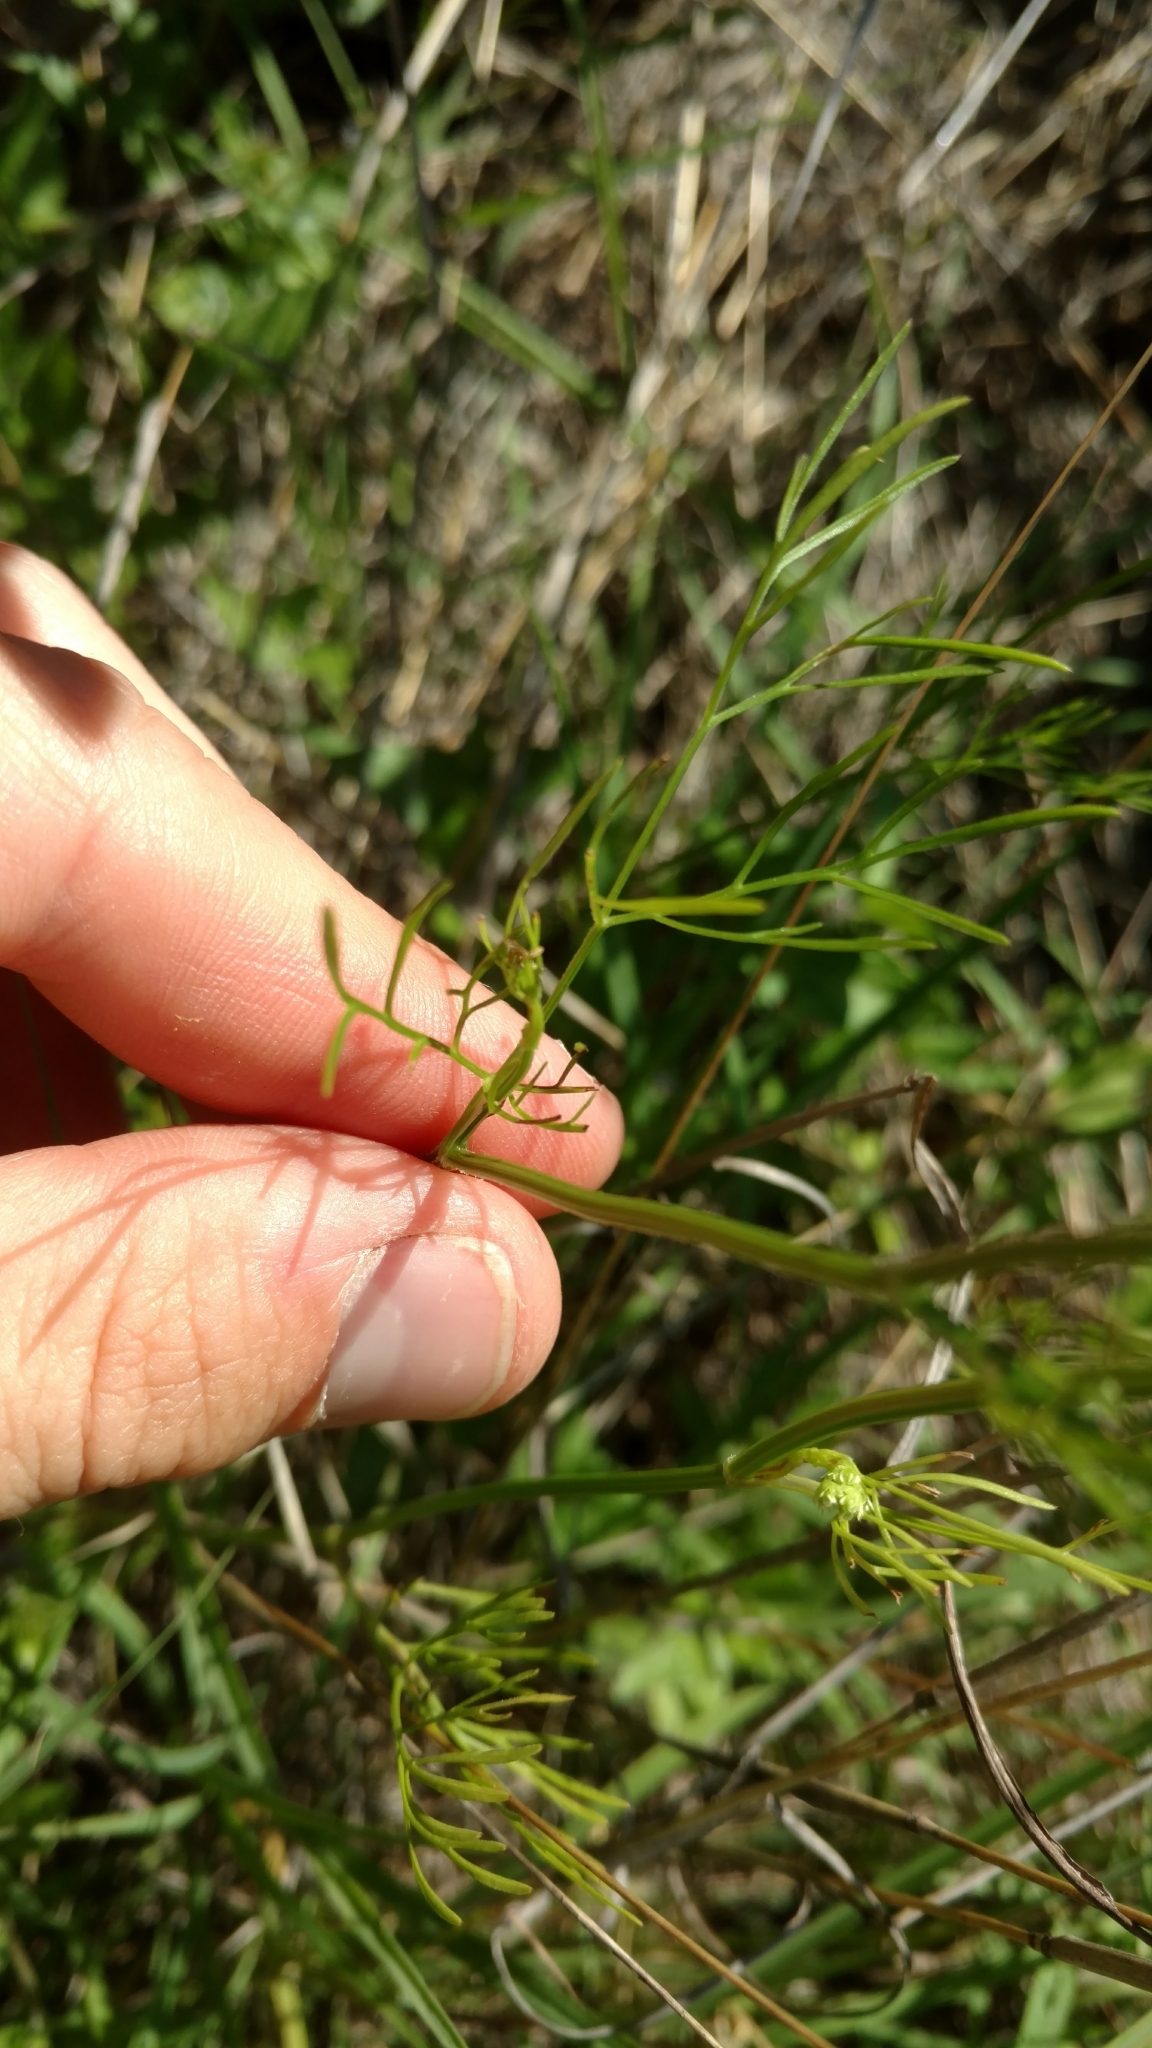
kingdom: Plantae
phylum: Tracheophyta
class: Magnoliopsida
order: Apiales
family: Apiaceae
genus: Atrema
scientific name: Atrema americanum
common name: Prairie-bishop
